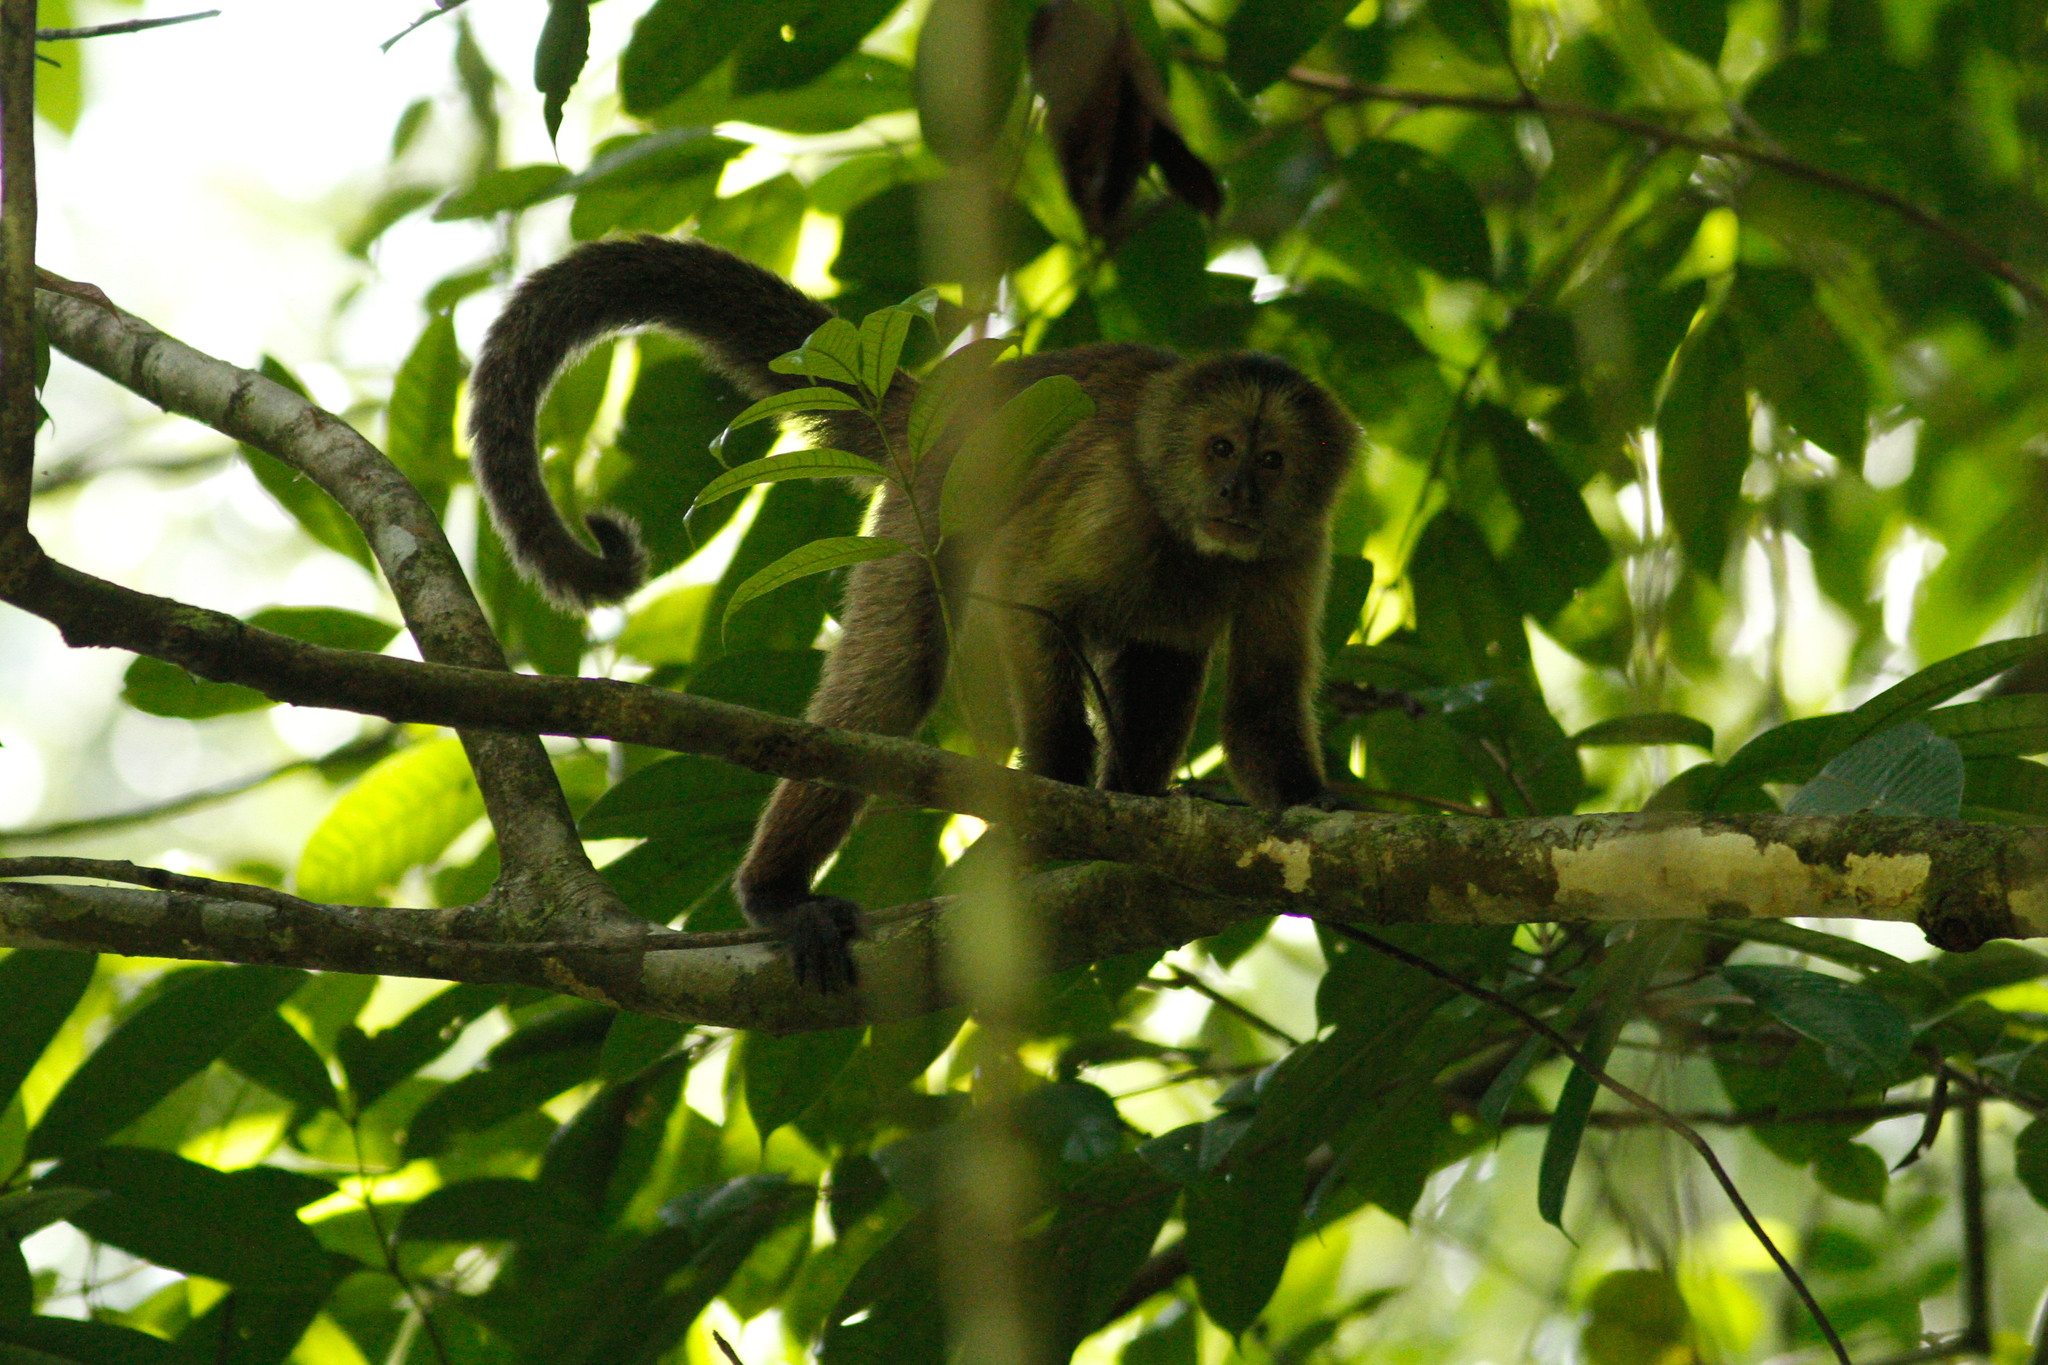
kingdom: Animalia
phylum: Chordata
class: Mammalia
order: Primates
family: Cebidae
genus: Cebus
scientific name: Cebus castaneus
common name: Chestnut weeper capuchin
